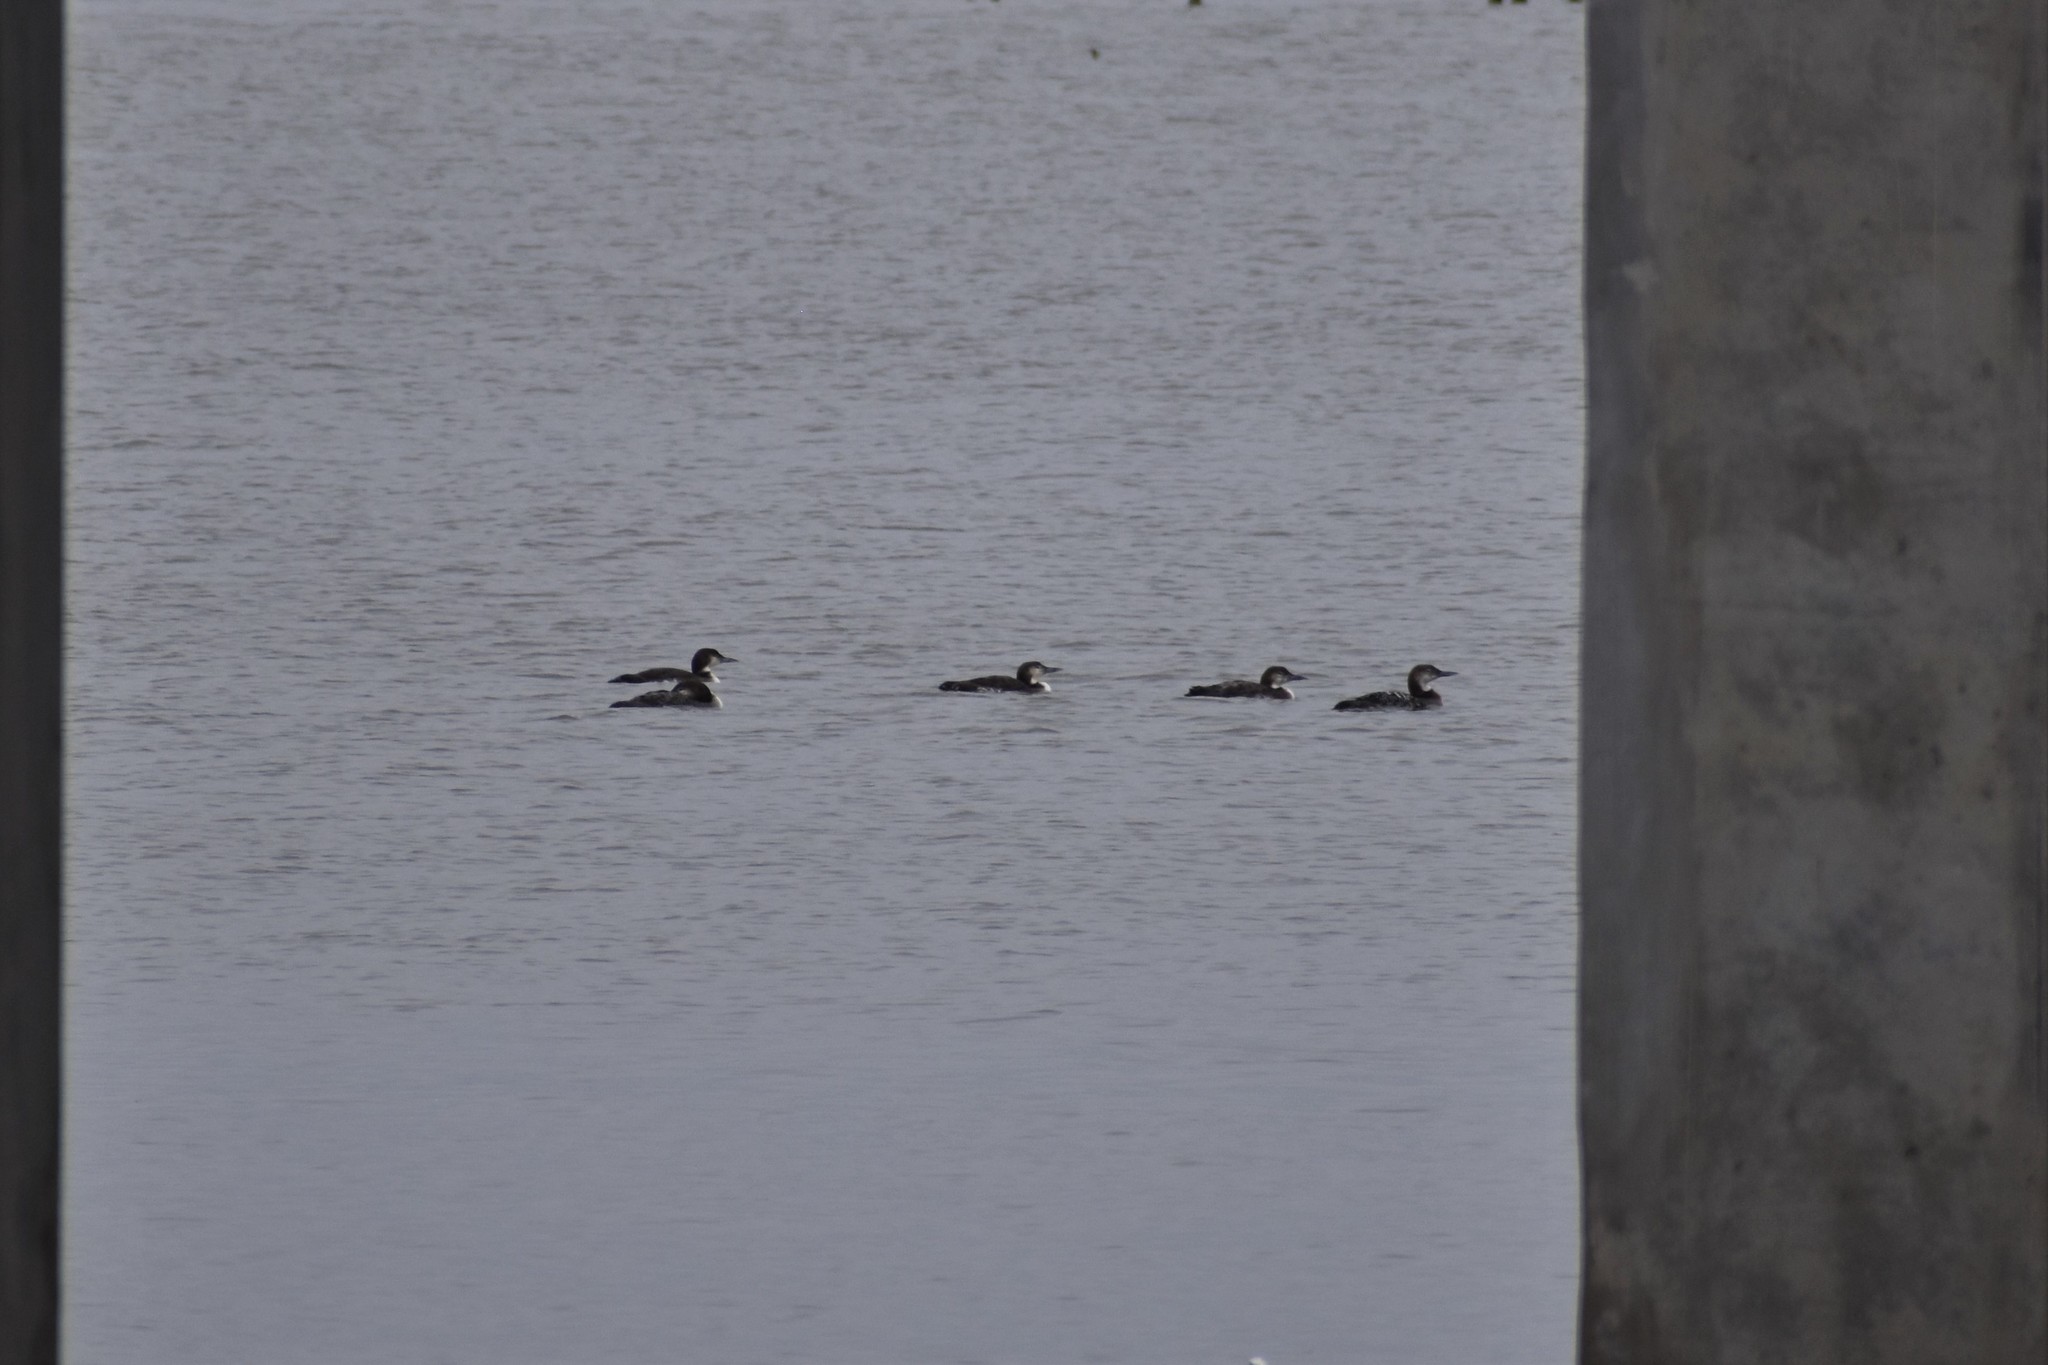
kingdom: Animalia
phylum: Chordata
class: Aves
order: Gaviiformes
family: Gaviidae
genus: Gavia
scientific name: Gavia immer
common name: Common loon
